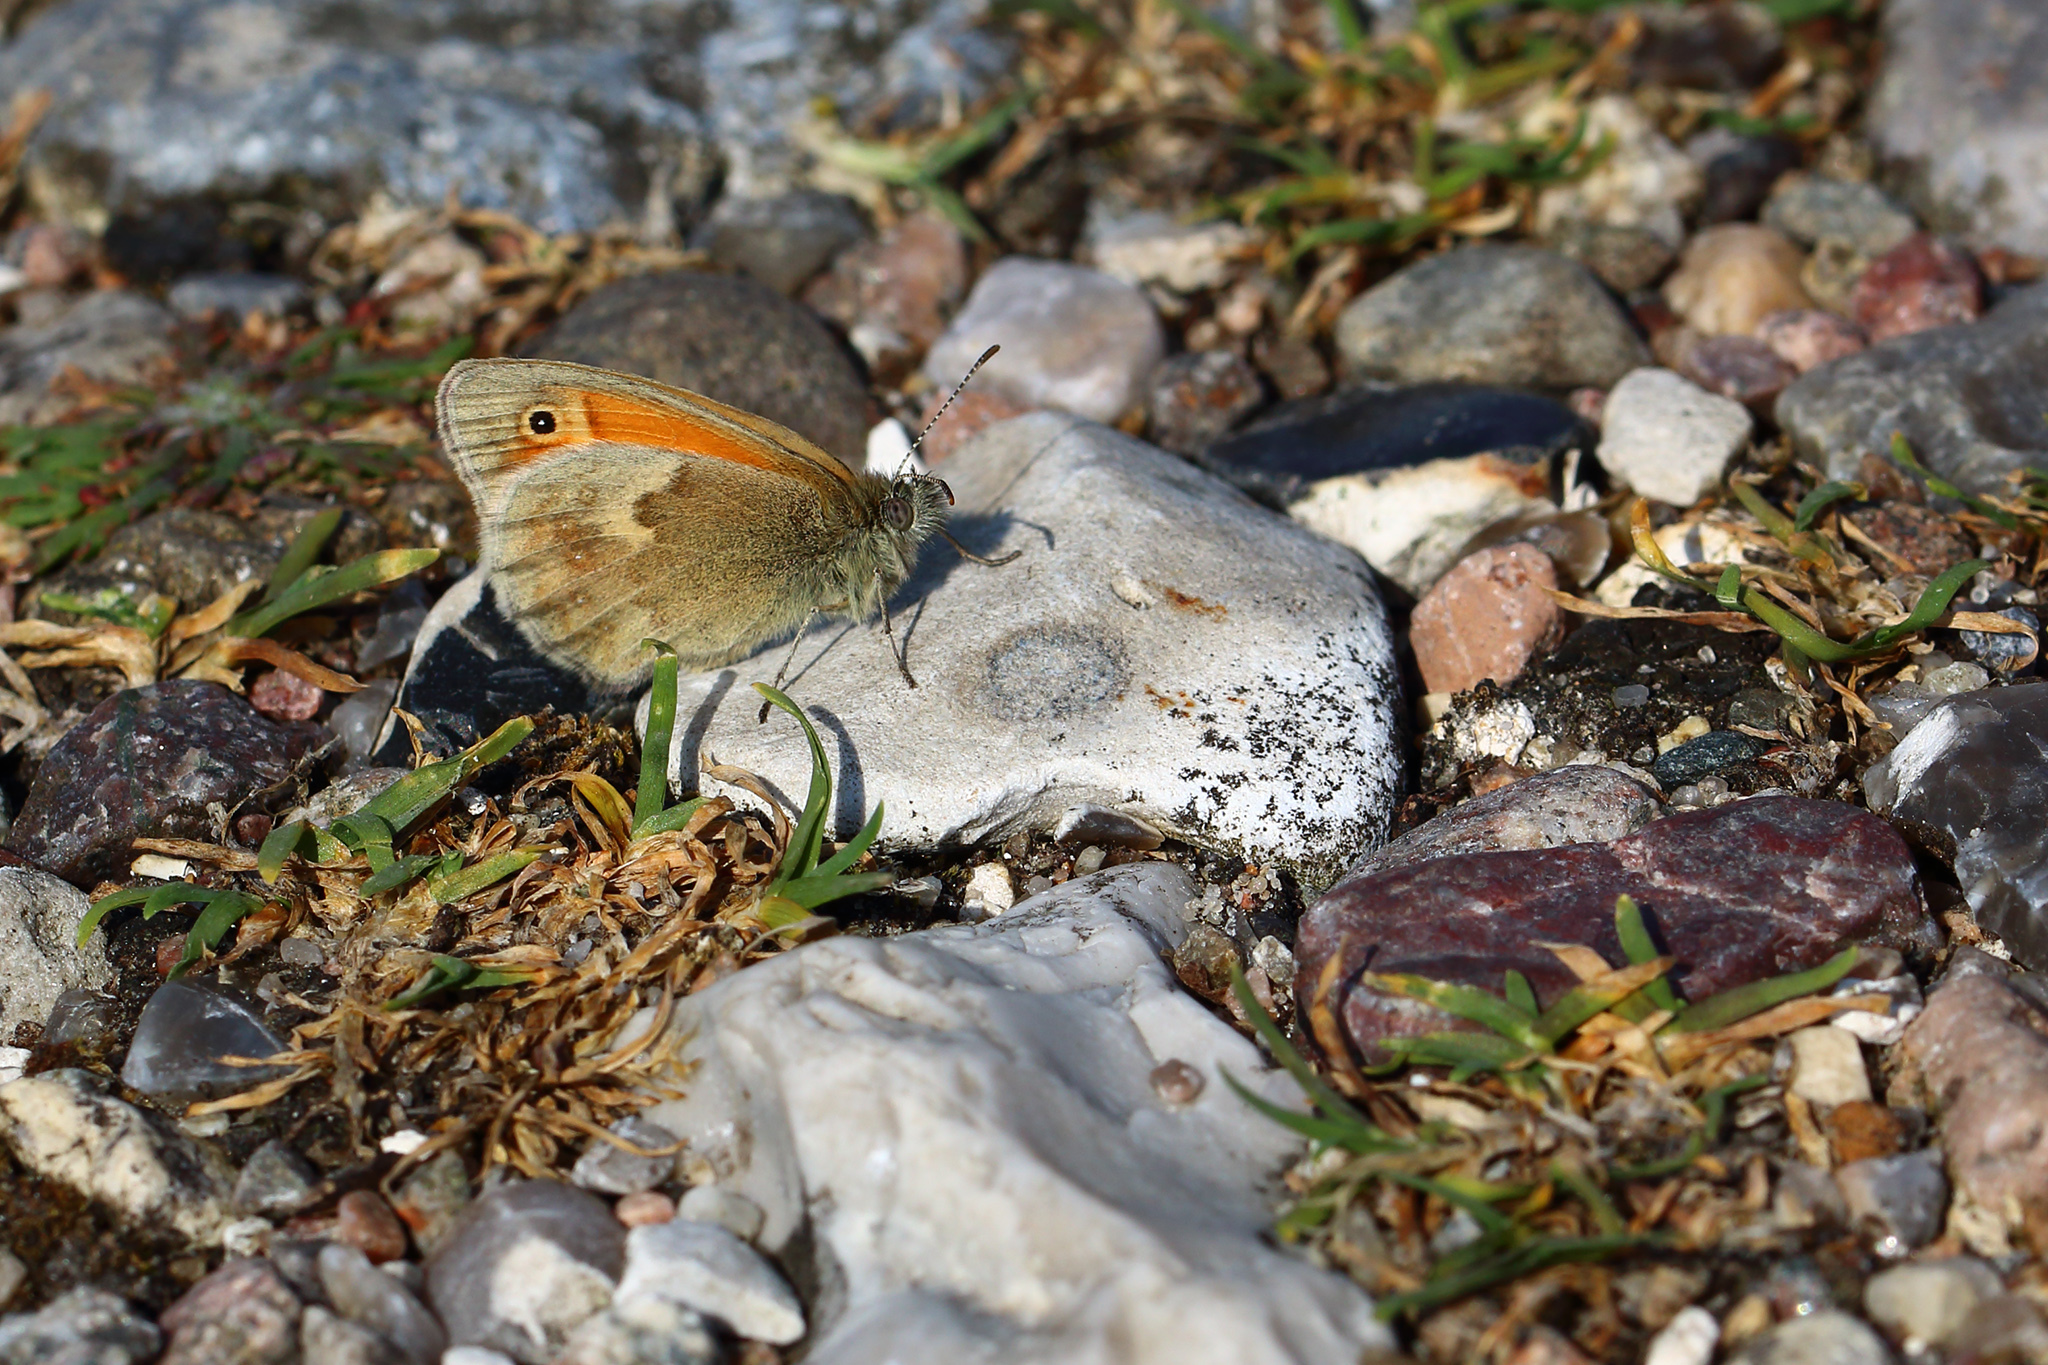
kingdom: Animalia
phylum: Arthropoda
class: Insecta
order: Lepidoptera
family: Nymphalidae
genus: Coenonympha
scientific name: Coenonympha pamphilus
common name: Small heath
